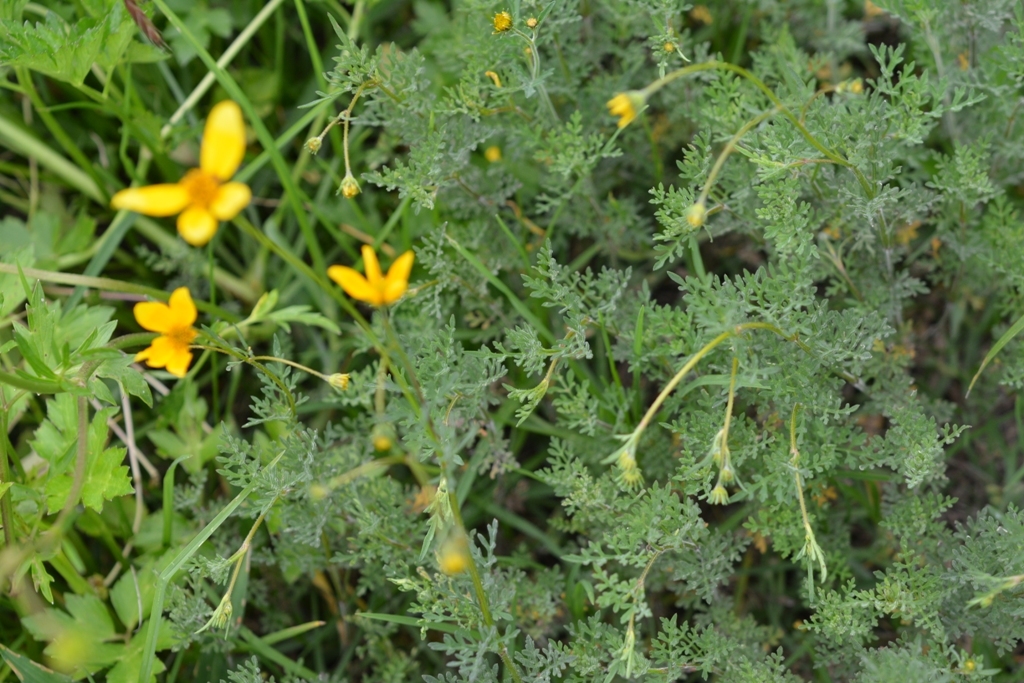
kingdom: Plantae
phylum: Tracheophyta
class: Magnoliopsida
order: Asterales
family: Asteraceae
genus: Bidens
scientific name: Bidens triplinervia
